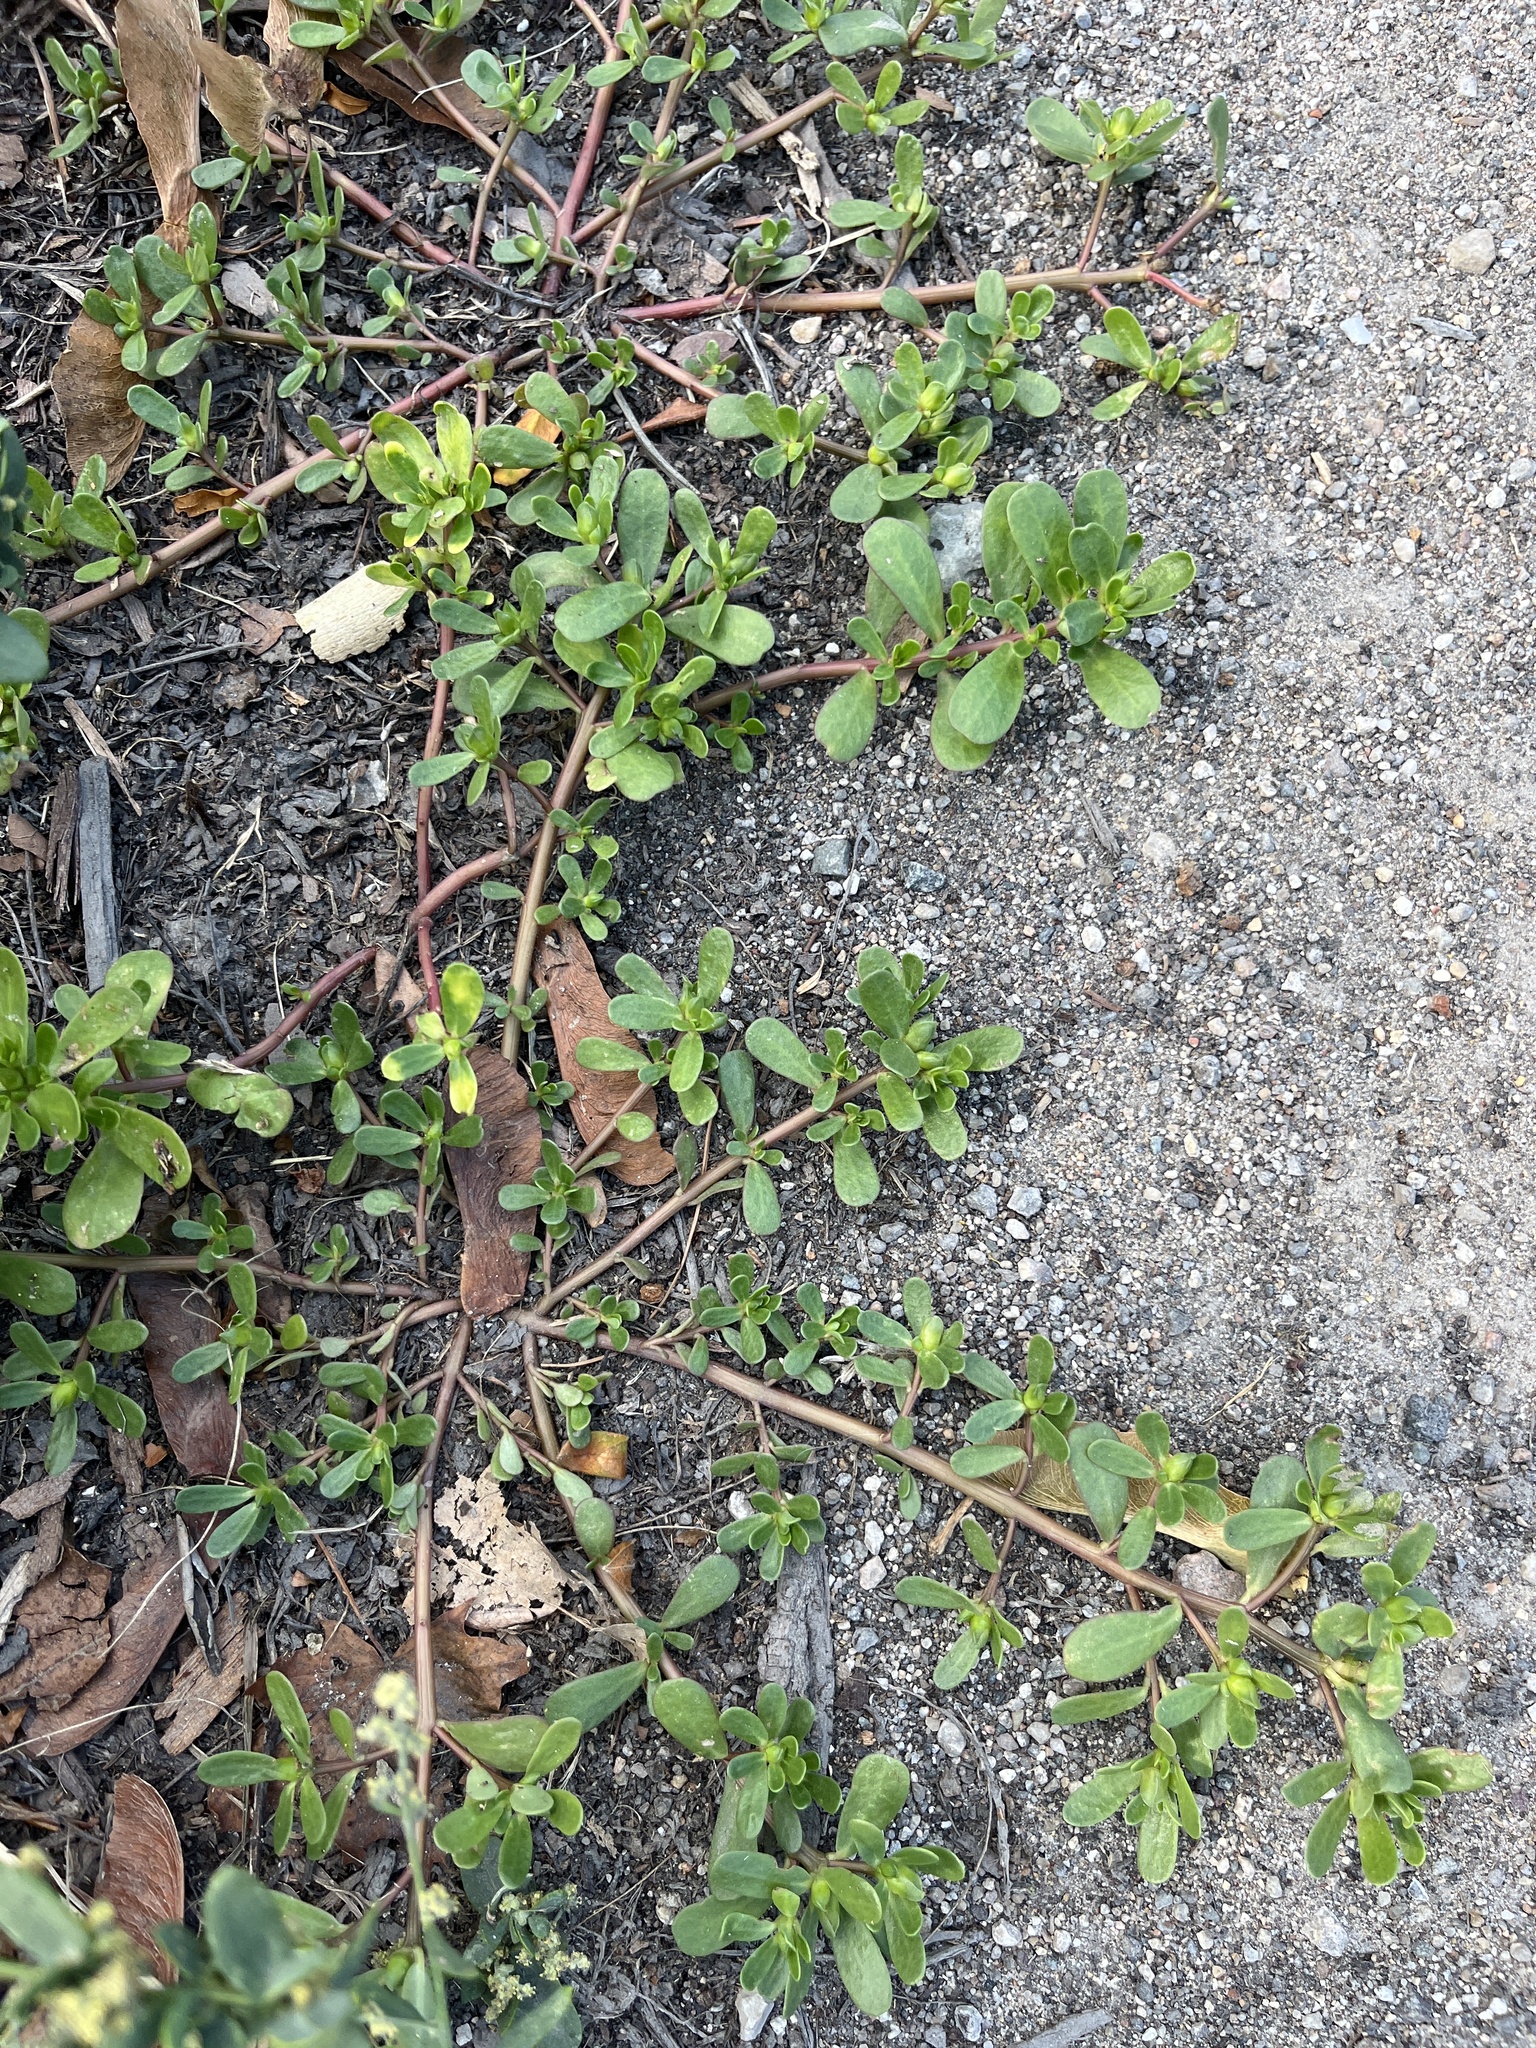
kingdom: Plantae
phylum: Tracheophyta
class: Magnoliopsida
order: Caryophyllales
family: Portulacaceae
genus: Portulaca
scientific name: Portulaca oleracea
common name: Common purslane
